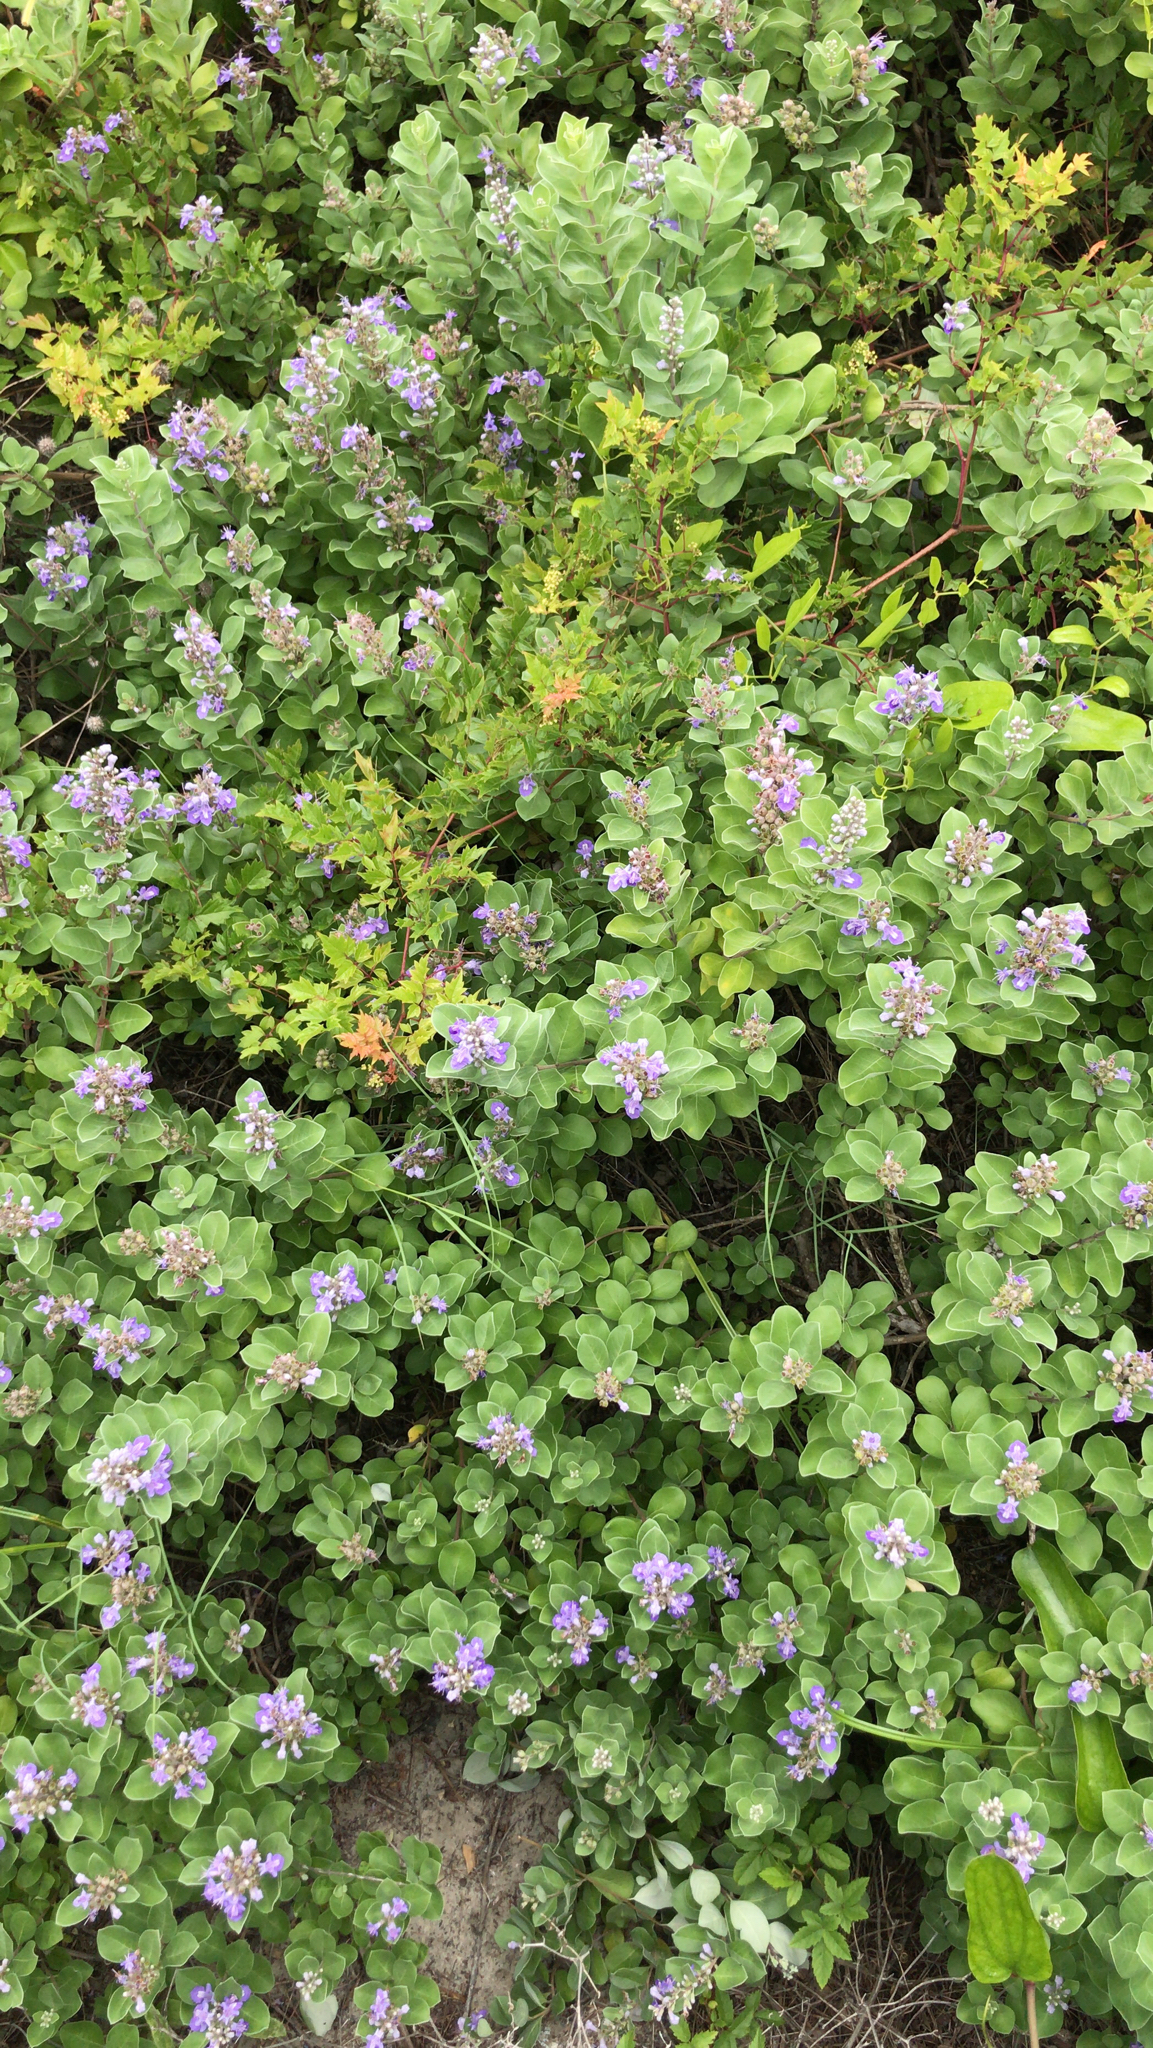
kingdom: Plantae
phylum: Tracheophyta
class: Magnoliopsida
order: Lamiales
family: Lamiaceae
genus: Vitex
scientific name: Vitex rotundifolia
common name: Beach vitex
